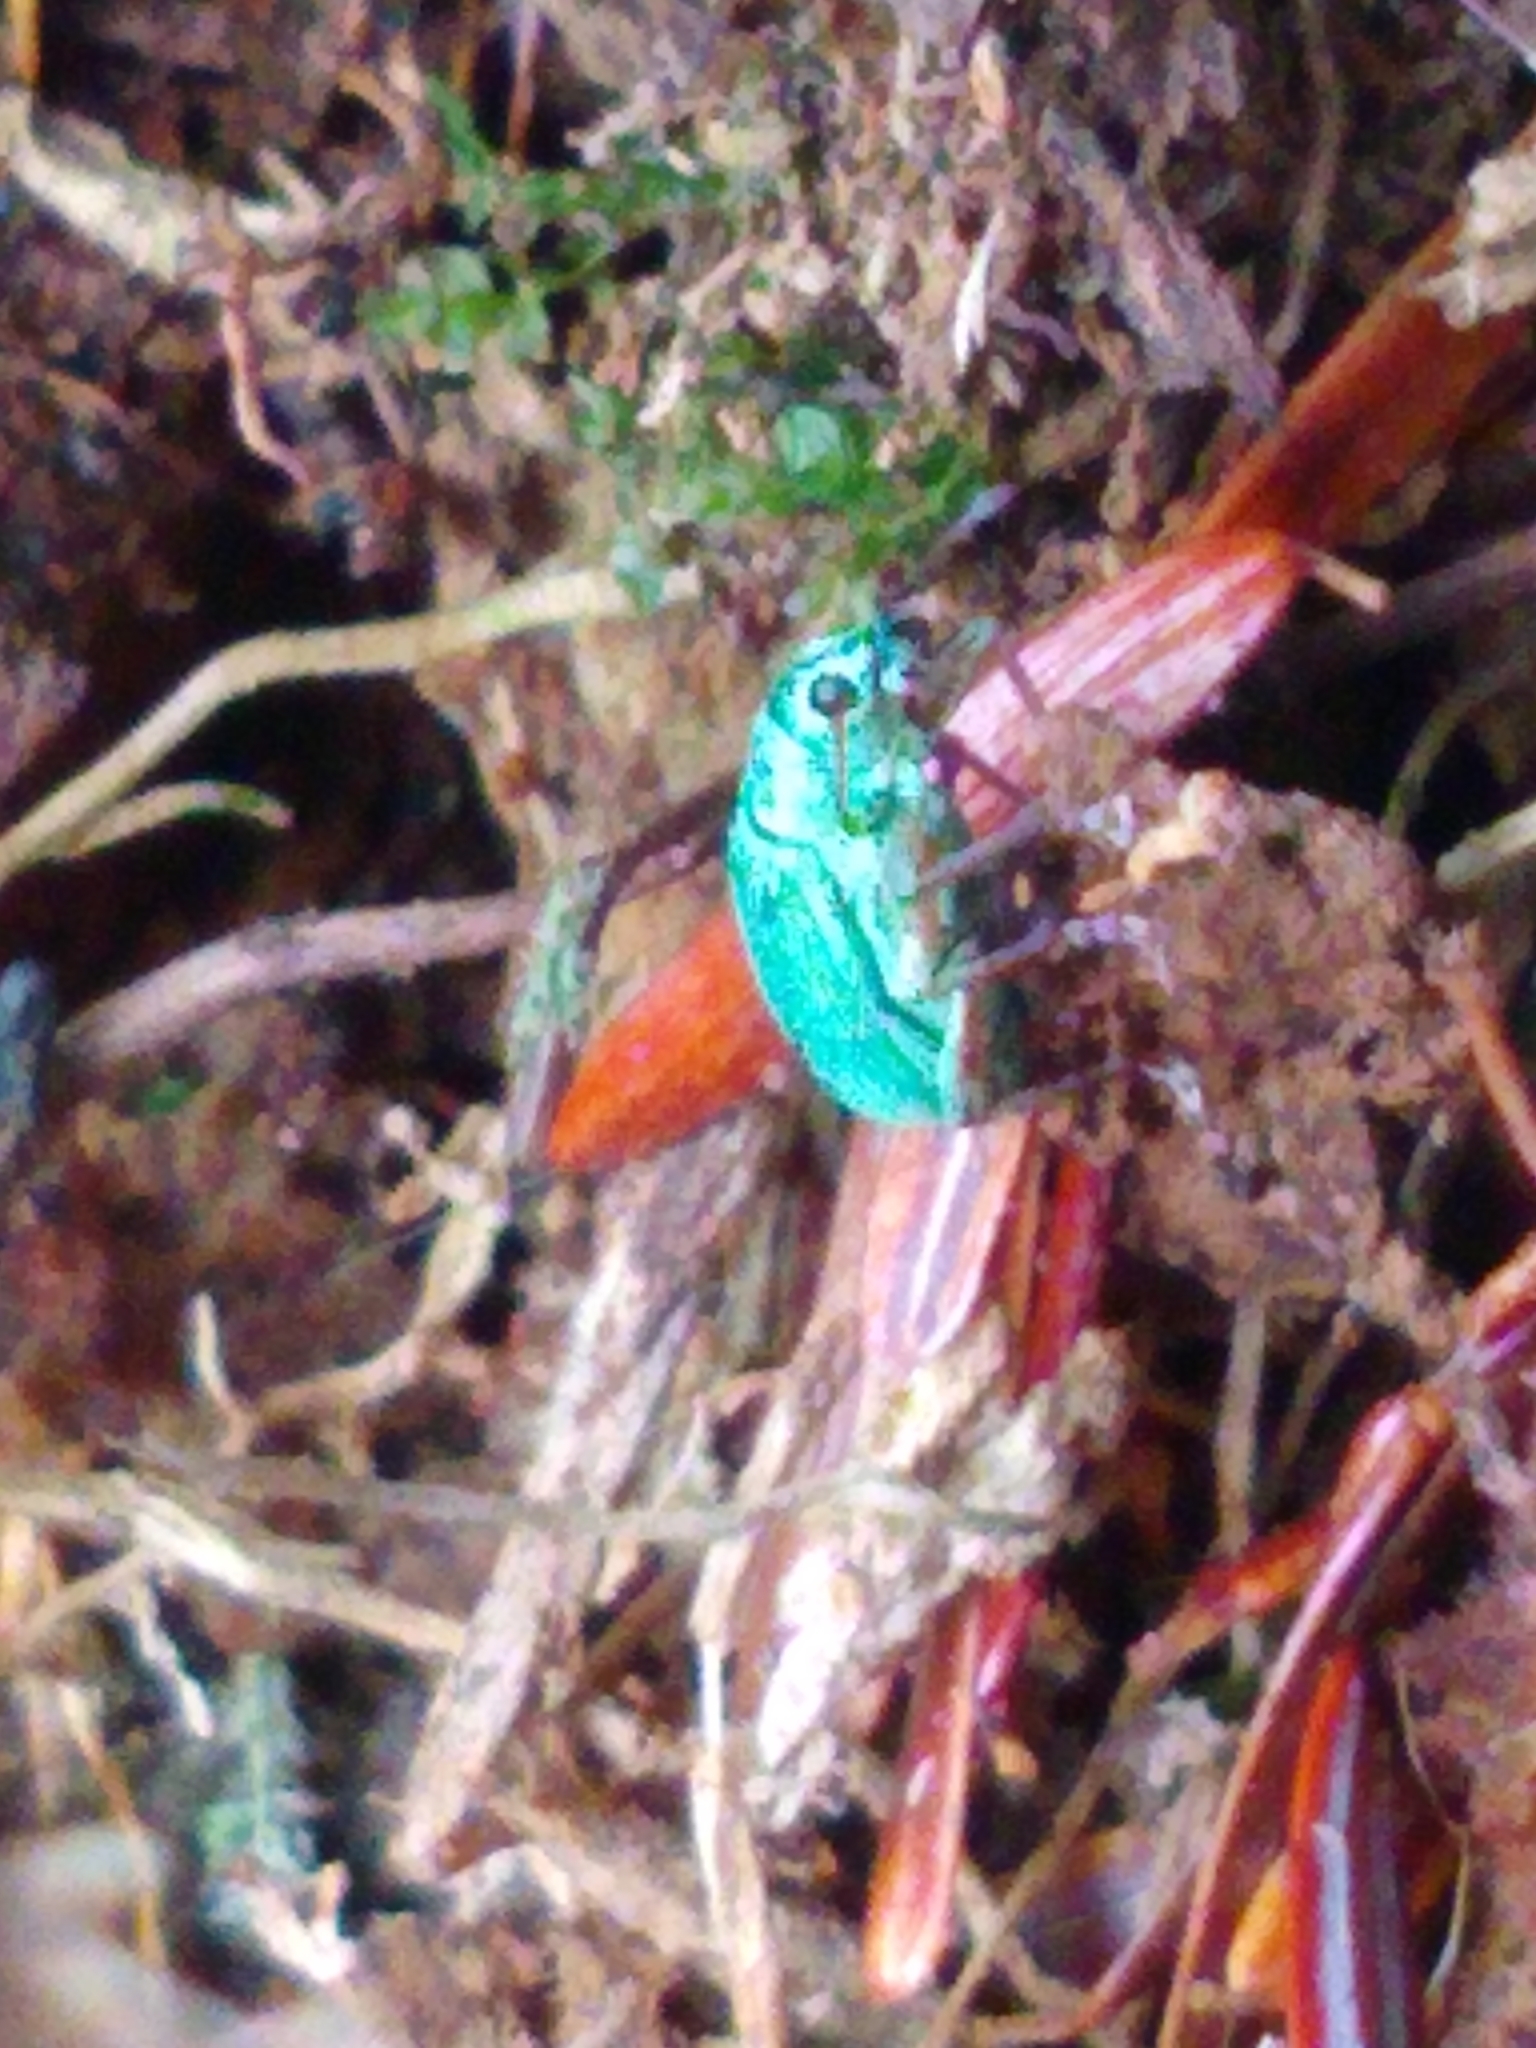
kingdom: Animalia
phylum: Arthropoda
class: Insecta
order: Coleoptera
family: Curculionidae
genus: Polydrusus
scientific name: Polydrusus formosus
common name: Weevil
